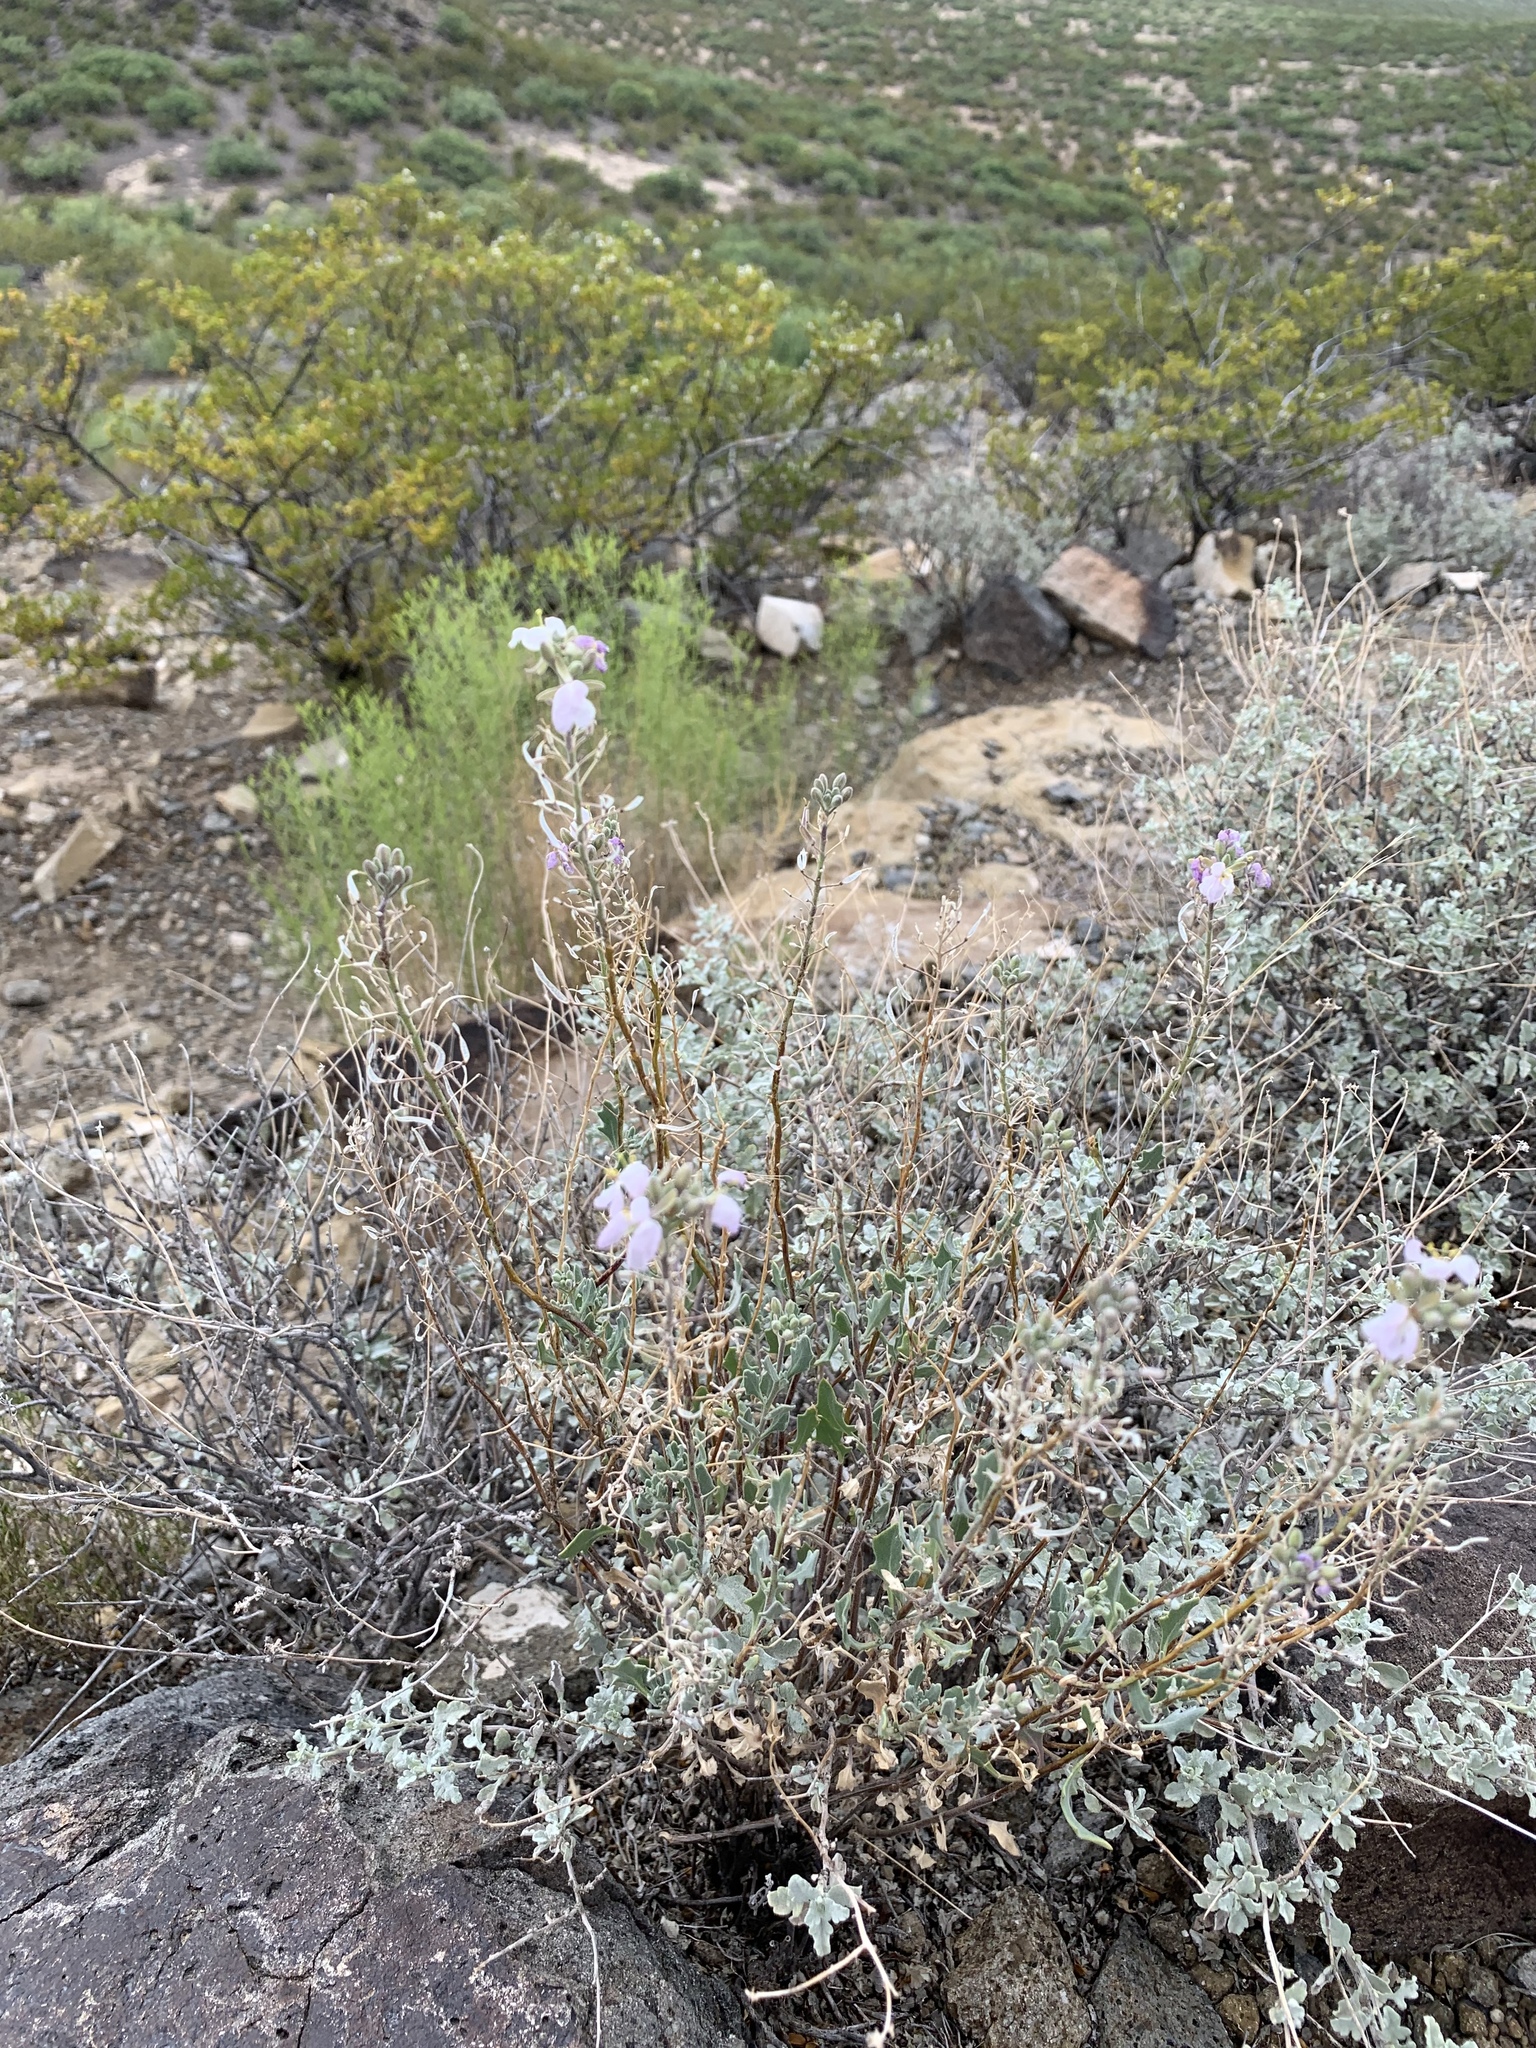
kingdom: Plantae
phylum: Tracheophyta
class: Magnoliopsida
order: Brassicales
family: Brassicaceae
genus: Nerisyrenia
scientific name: Nerisyrenia camporum
